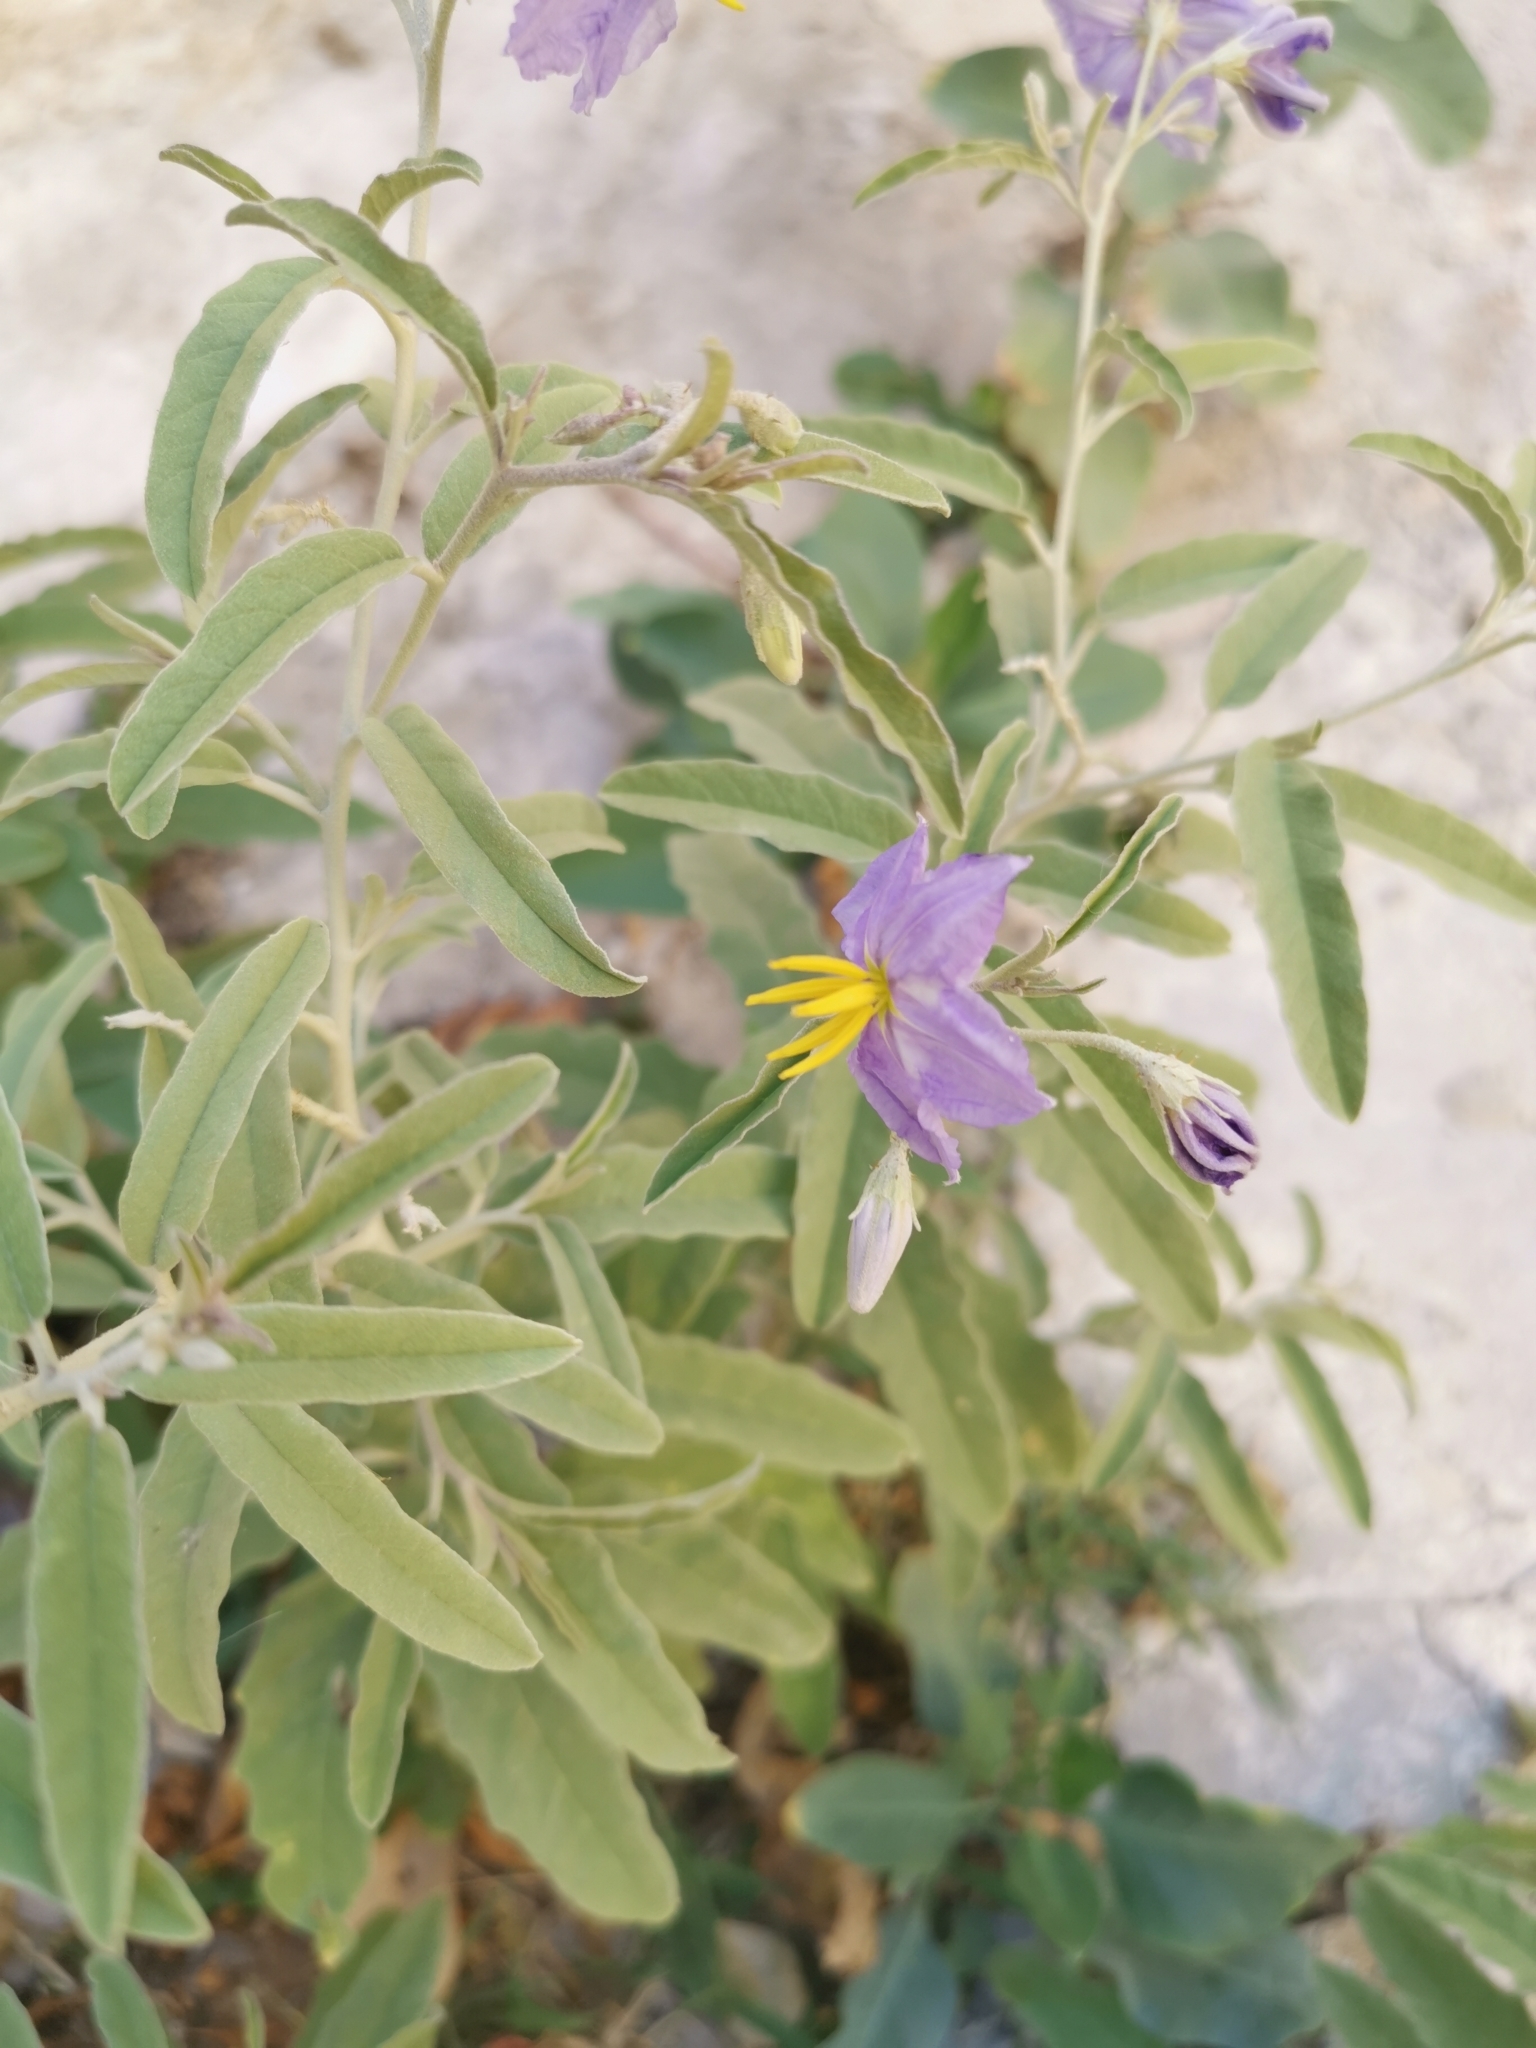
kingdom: Plantae
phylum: Tracheophyta
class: Magnoliopsida
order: Solanales
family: Solanaceae
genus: Solanum
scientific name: Solanum elaeagnifolium
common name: Silverleaf nightshade
